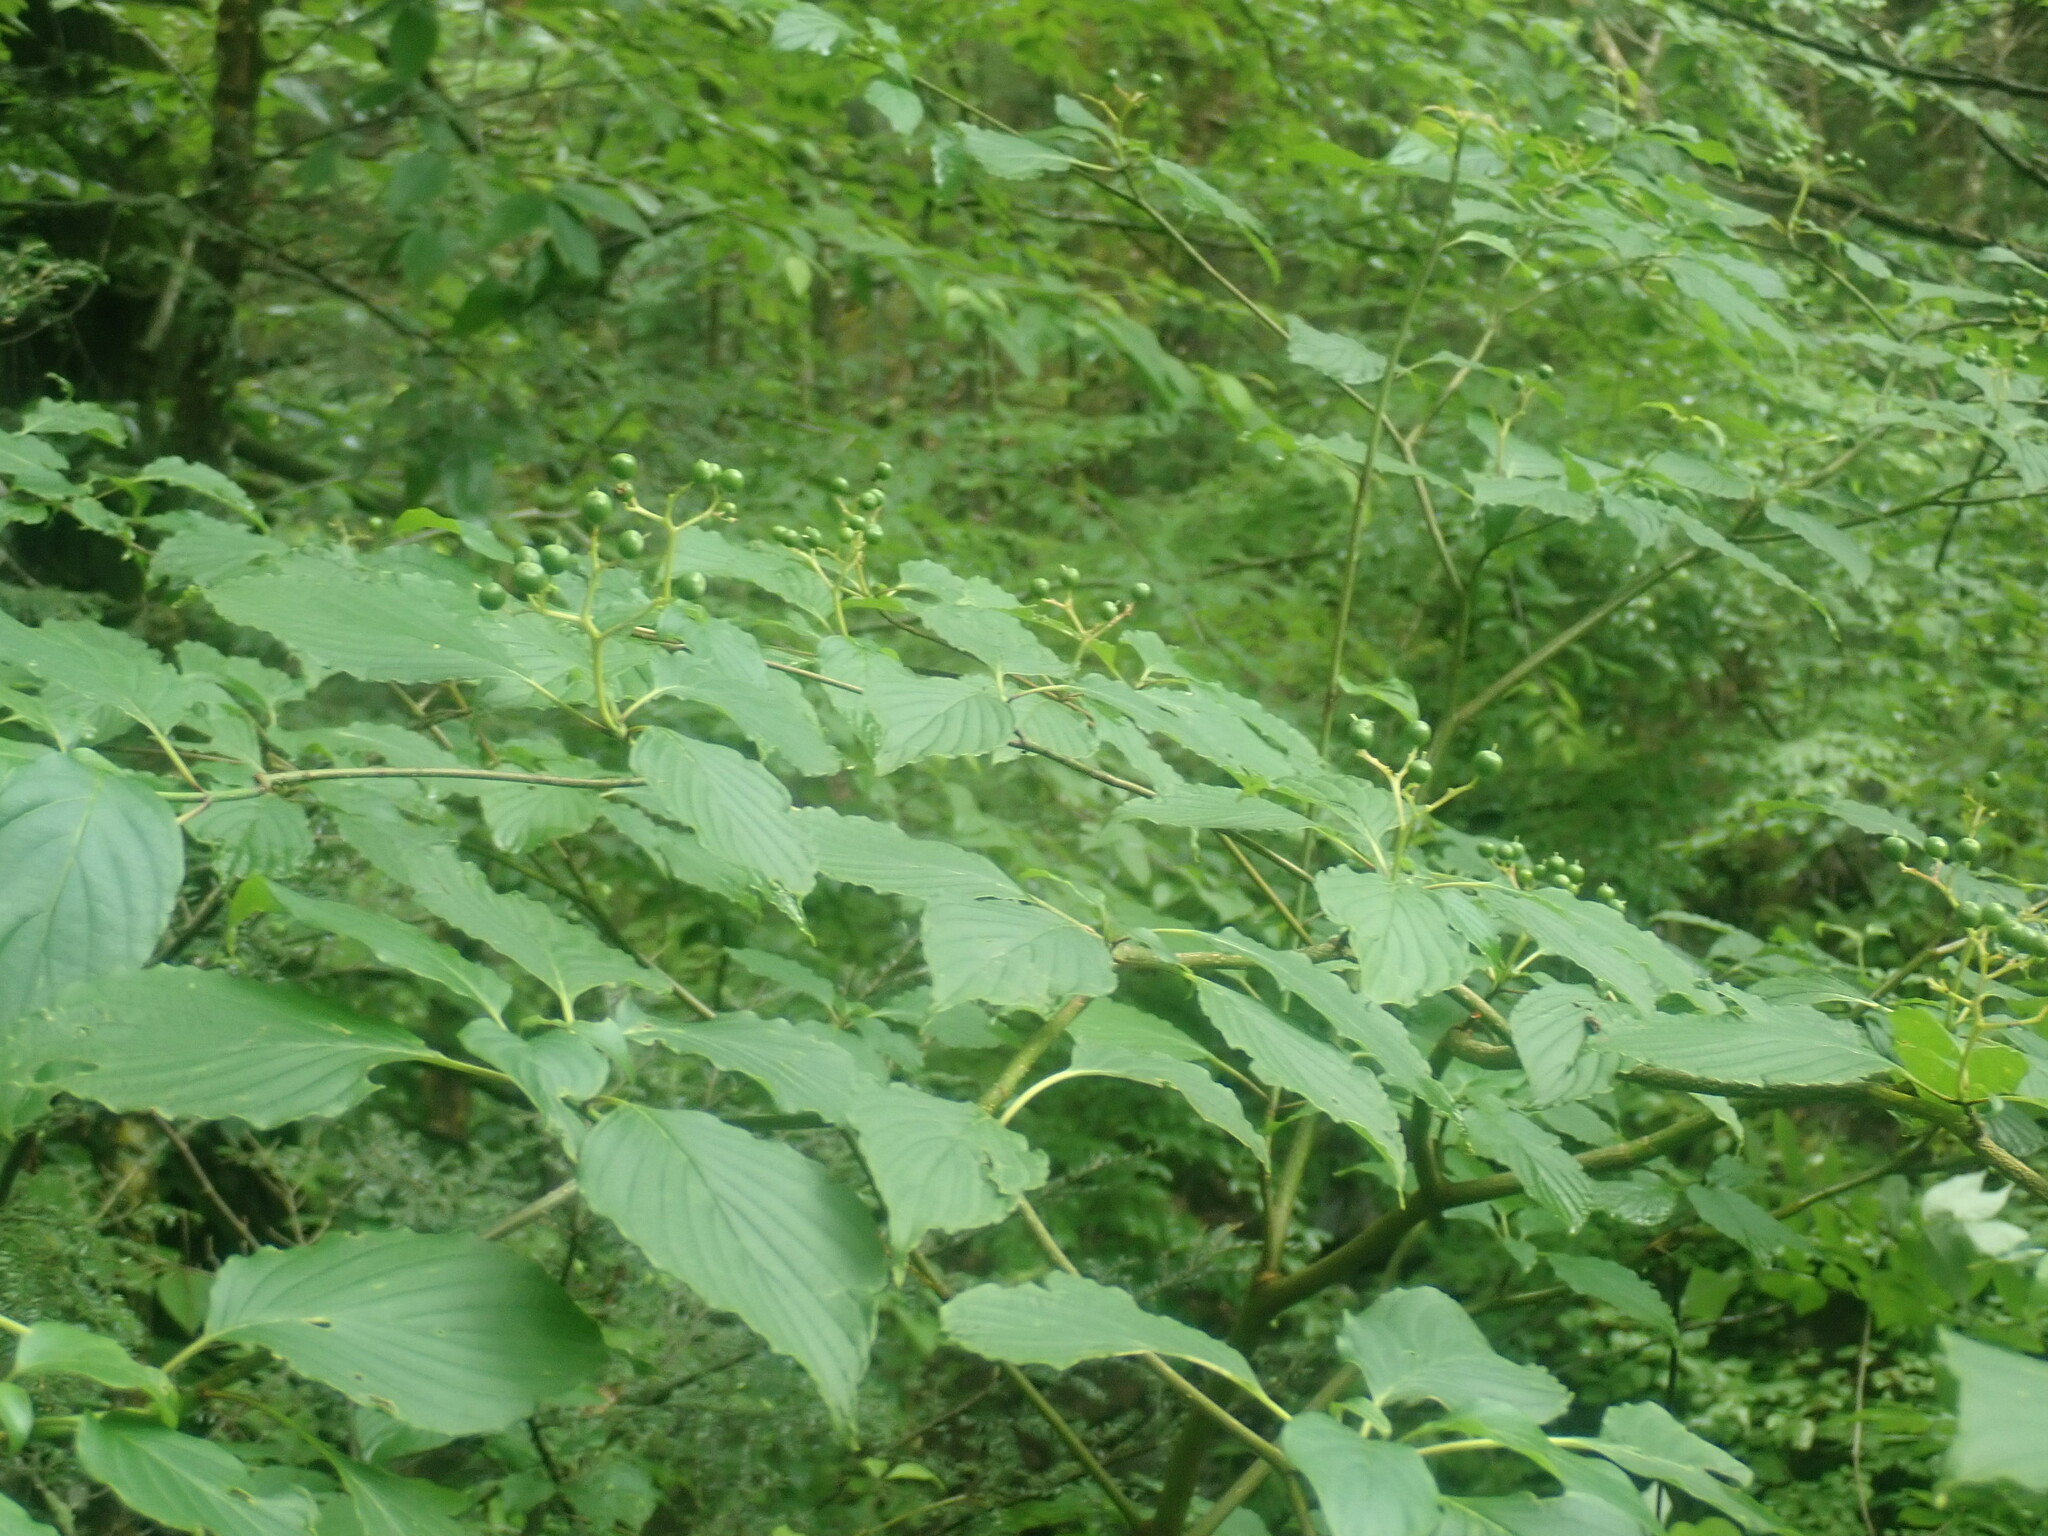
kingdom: Plantae
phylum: Tracheophyta
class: Magnoliopsida
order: Cornales
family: Cornaceae
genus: Cornus
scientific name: Cornus alternifolia
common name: Pagoda dogwood
